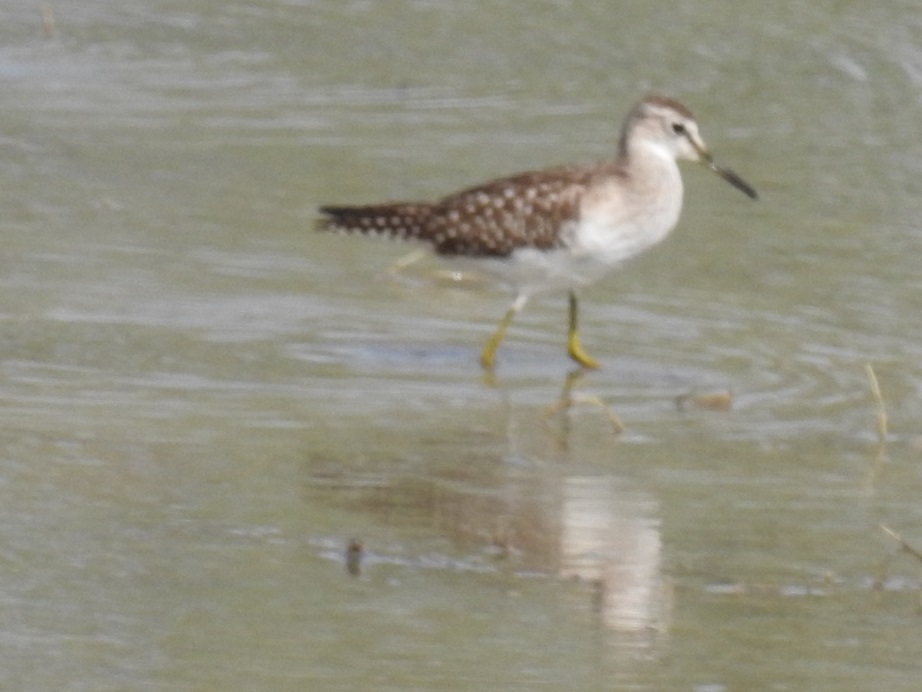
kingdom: Animalia
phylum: Chordata
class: Aves
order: Charadriiformes
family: Scolopacidae
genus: Tringa
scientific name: Tringa glareola
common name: Wood sandpiper
